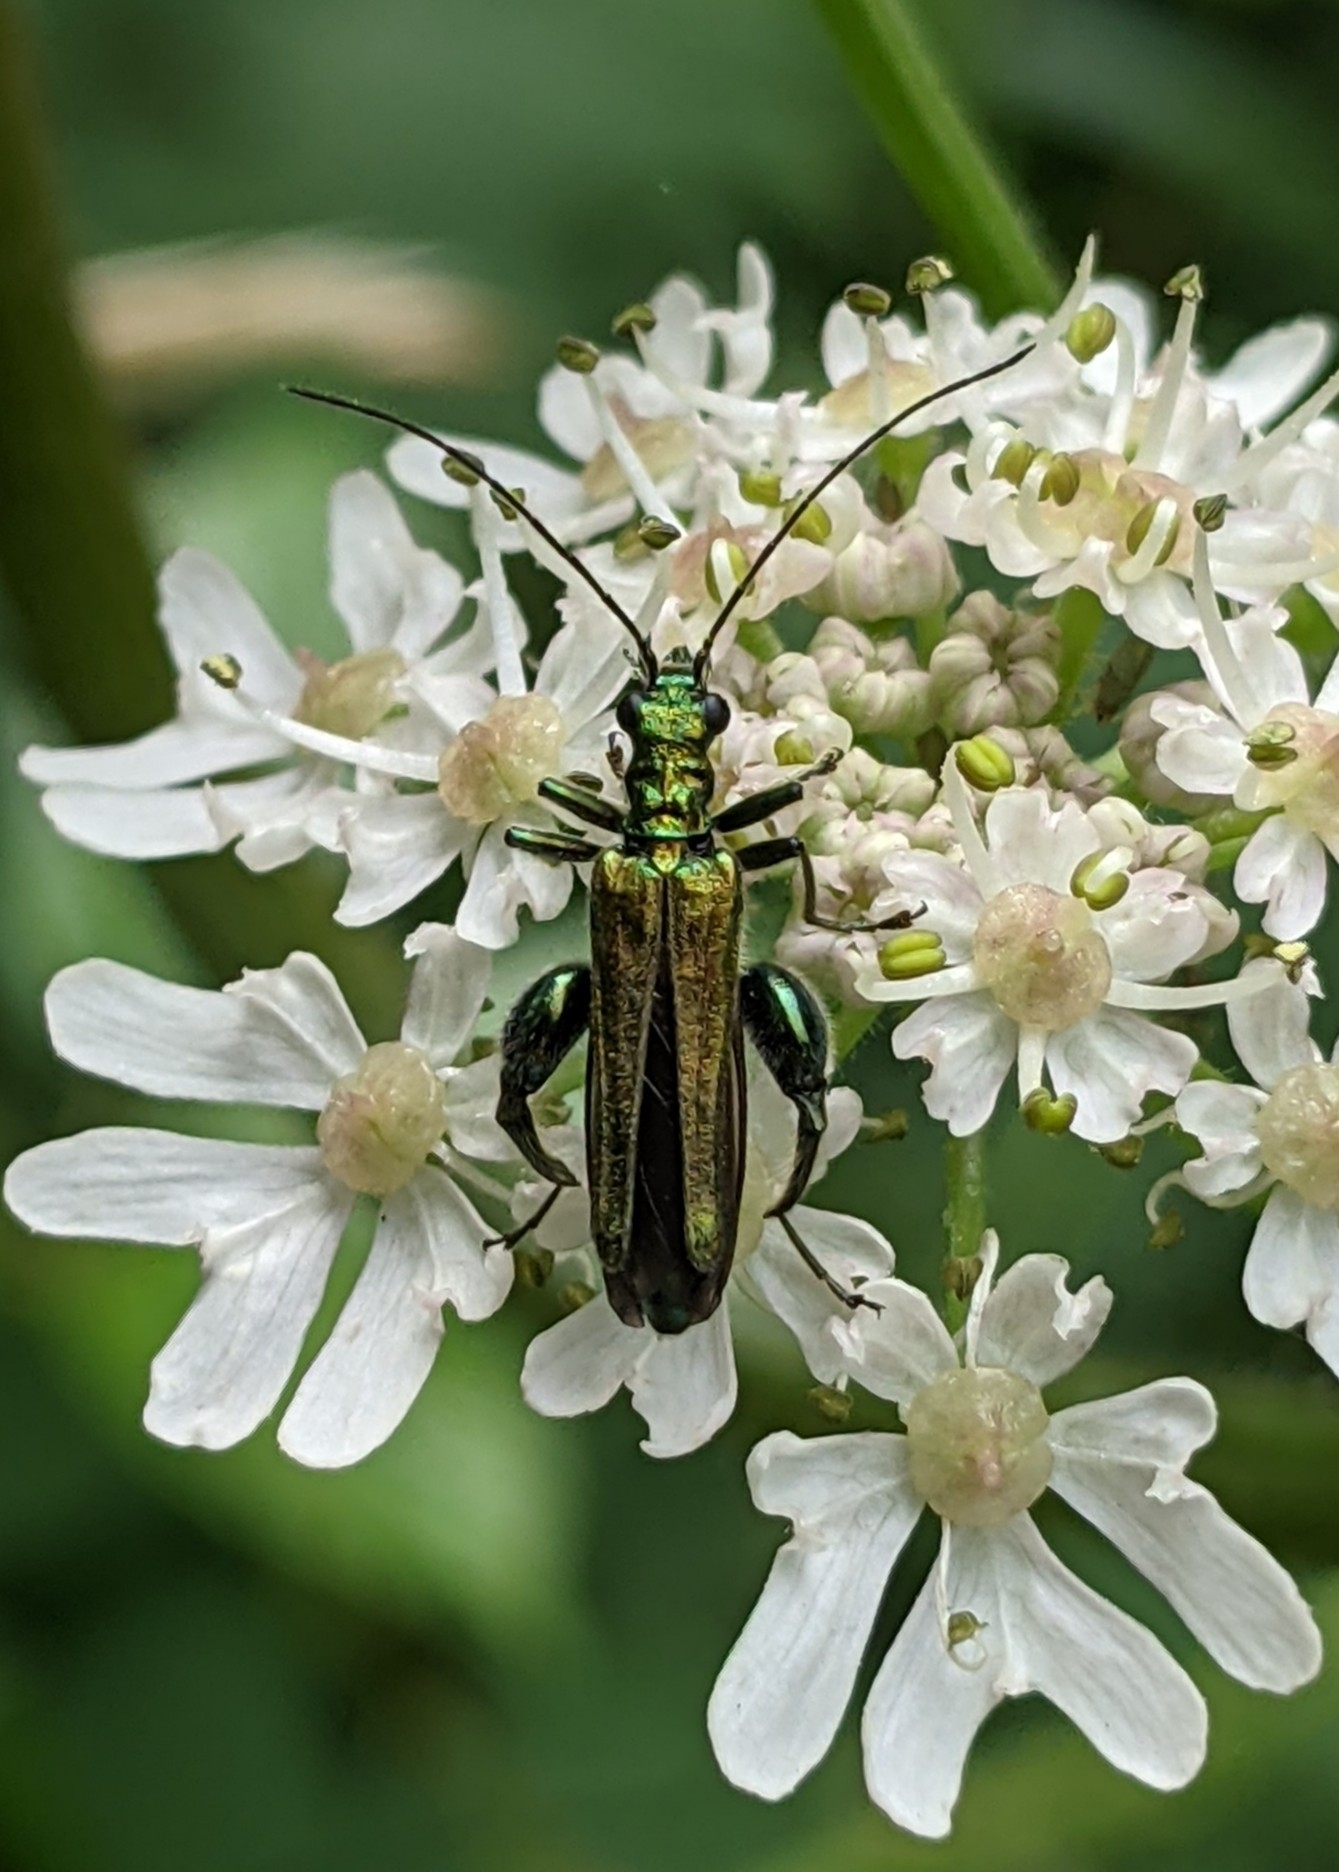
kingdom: Animalia
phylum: Arthropoda
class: Insecta
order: Coleoptera
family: Oedemeridae
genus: Oedemera
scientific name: Oedemera nobilis
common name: Swollen-thighed beetle
